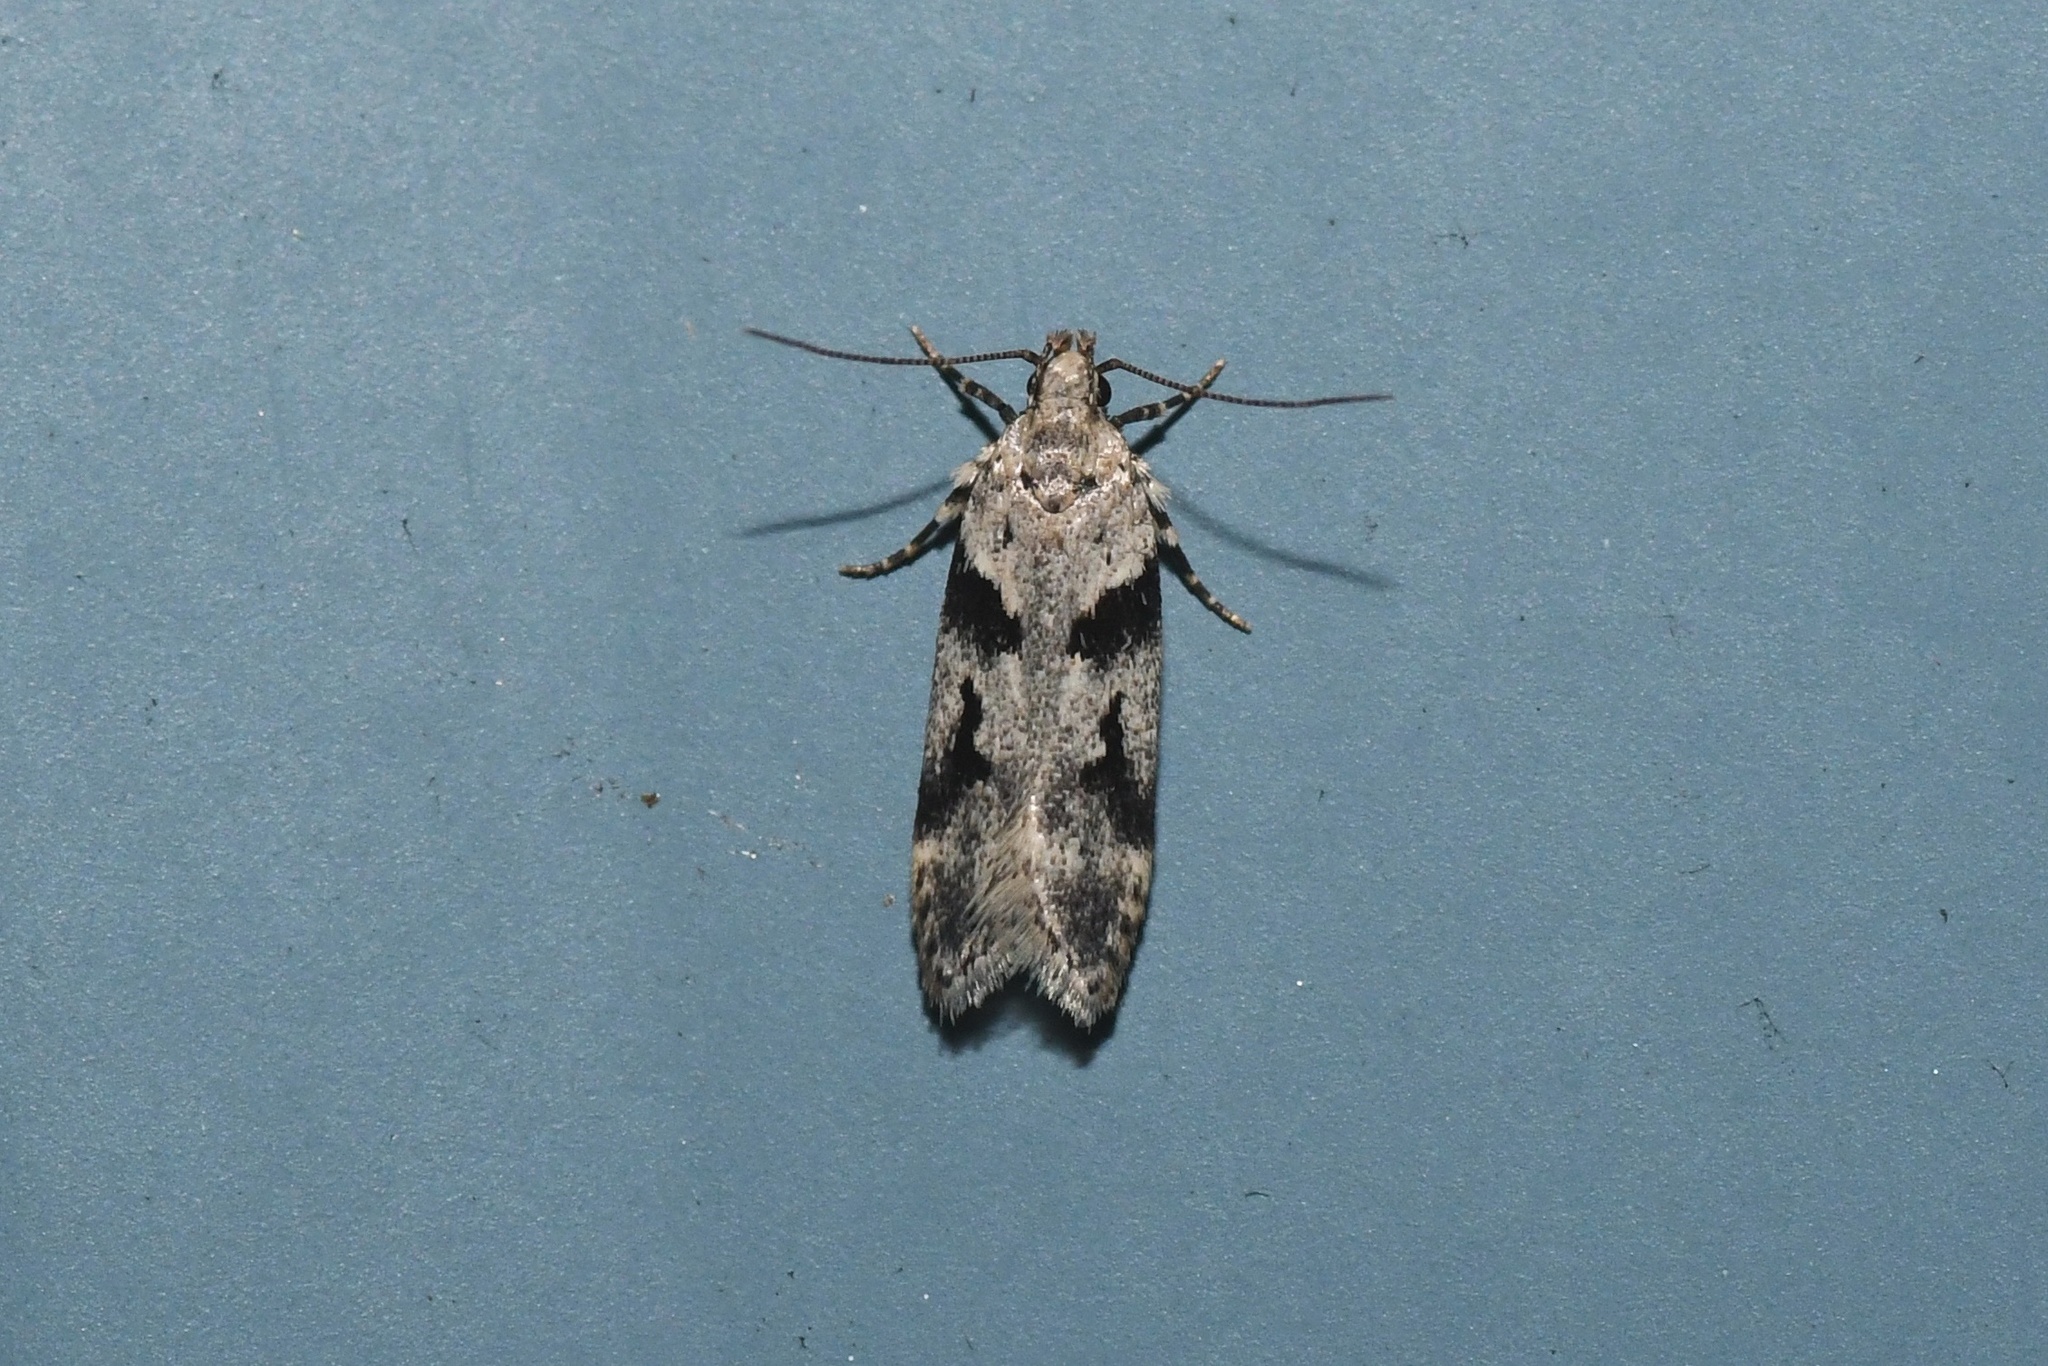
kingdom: Animalia
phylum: Arthropoda
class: Insecta
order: Lepidoptera
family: Gelechiidae
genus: Chionodes
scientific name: Chionodes fondella
